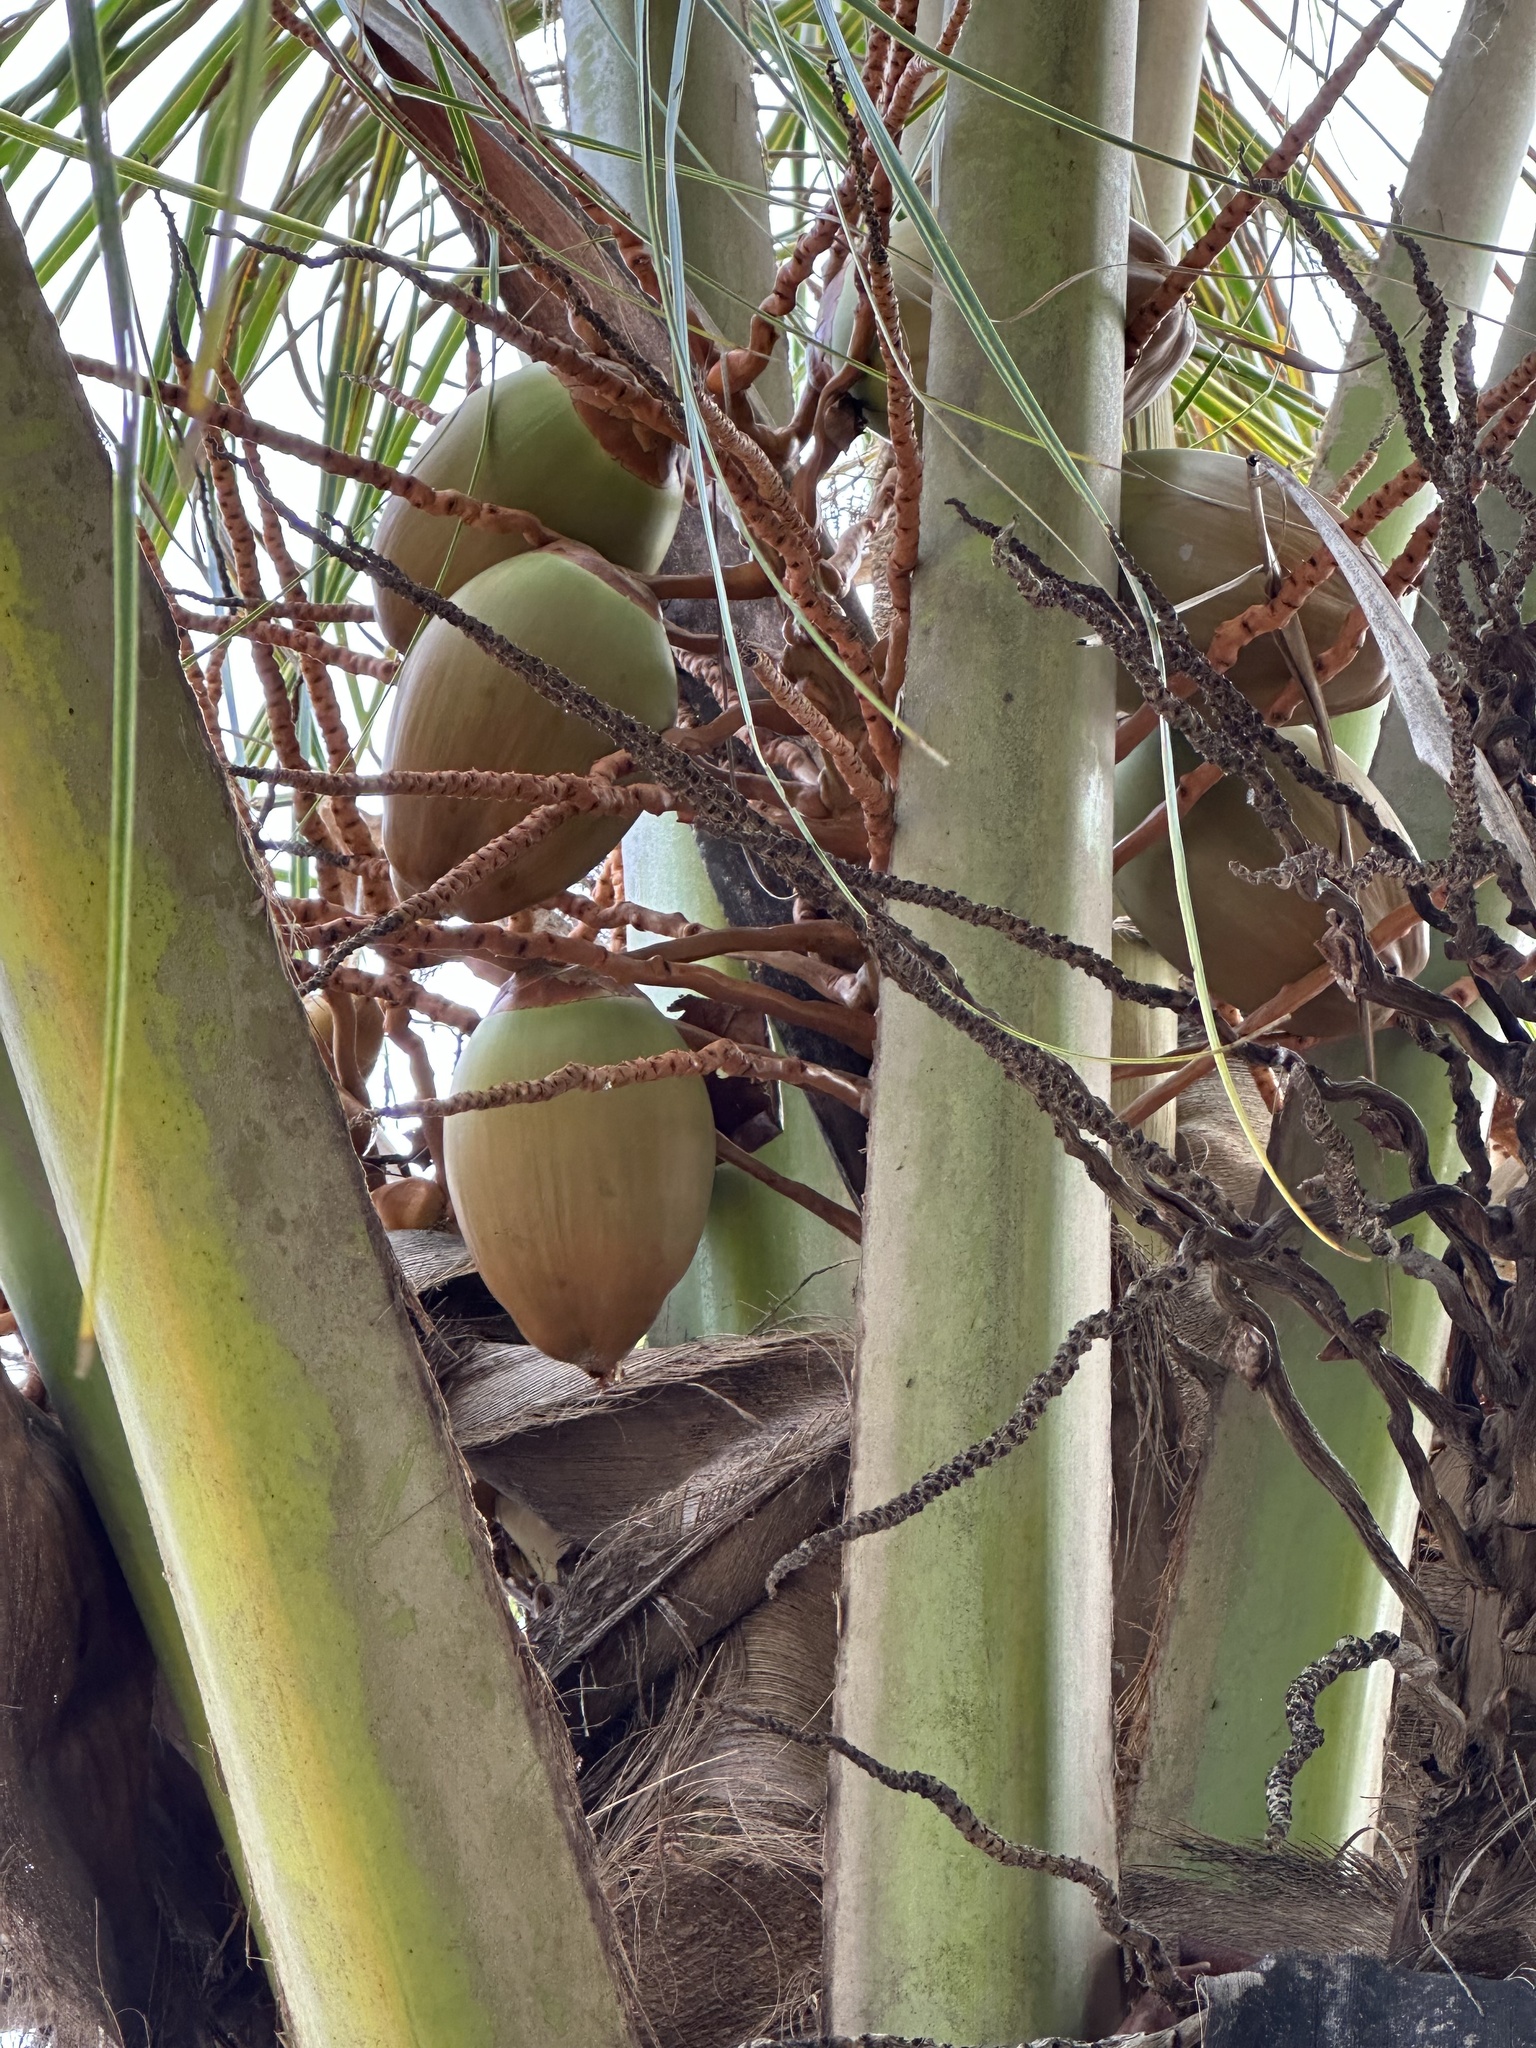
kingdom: Plantae
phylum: Tracheophyta
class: Liliopsida
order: Arecales
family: Arecaceae
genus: Cocos
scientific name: Cocos nucifera
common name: Coconut palm
